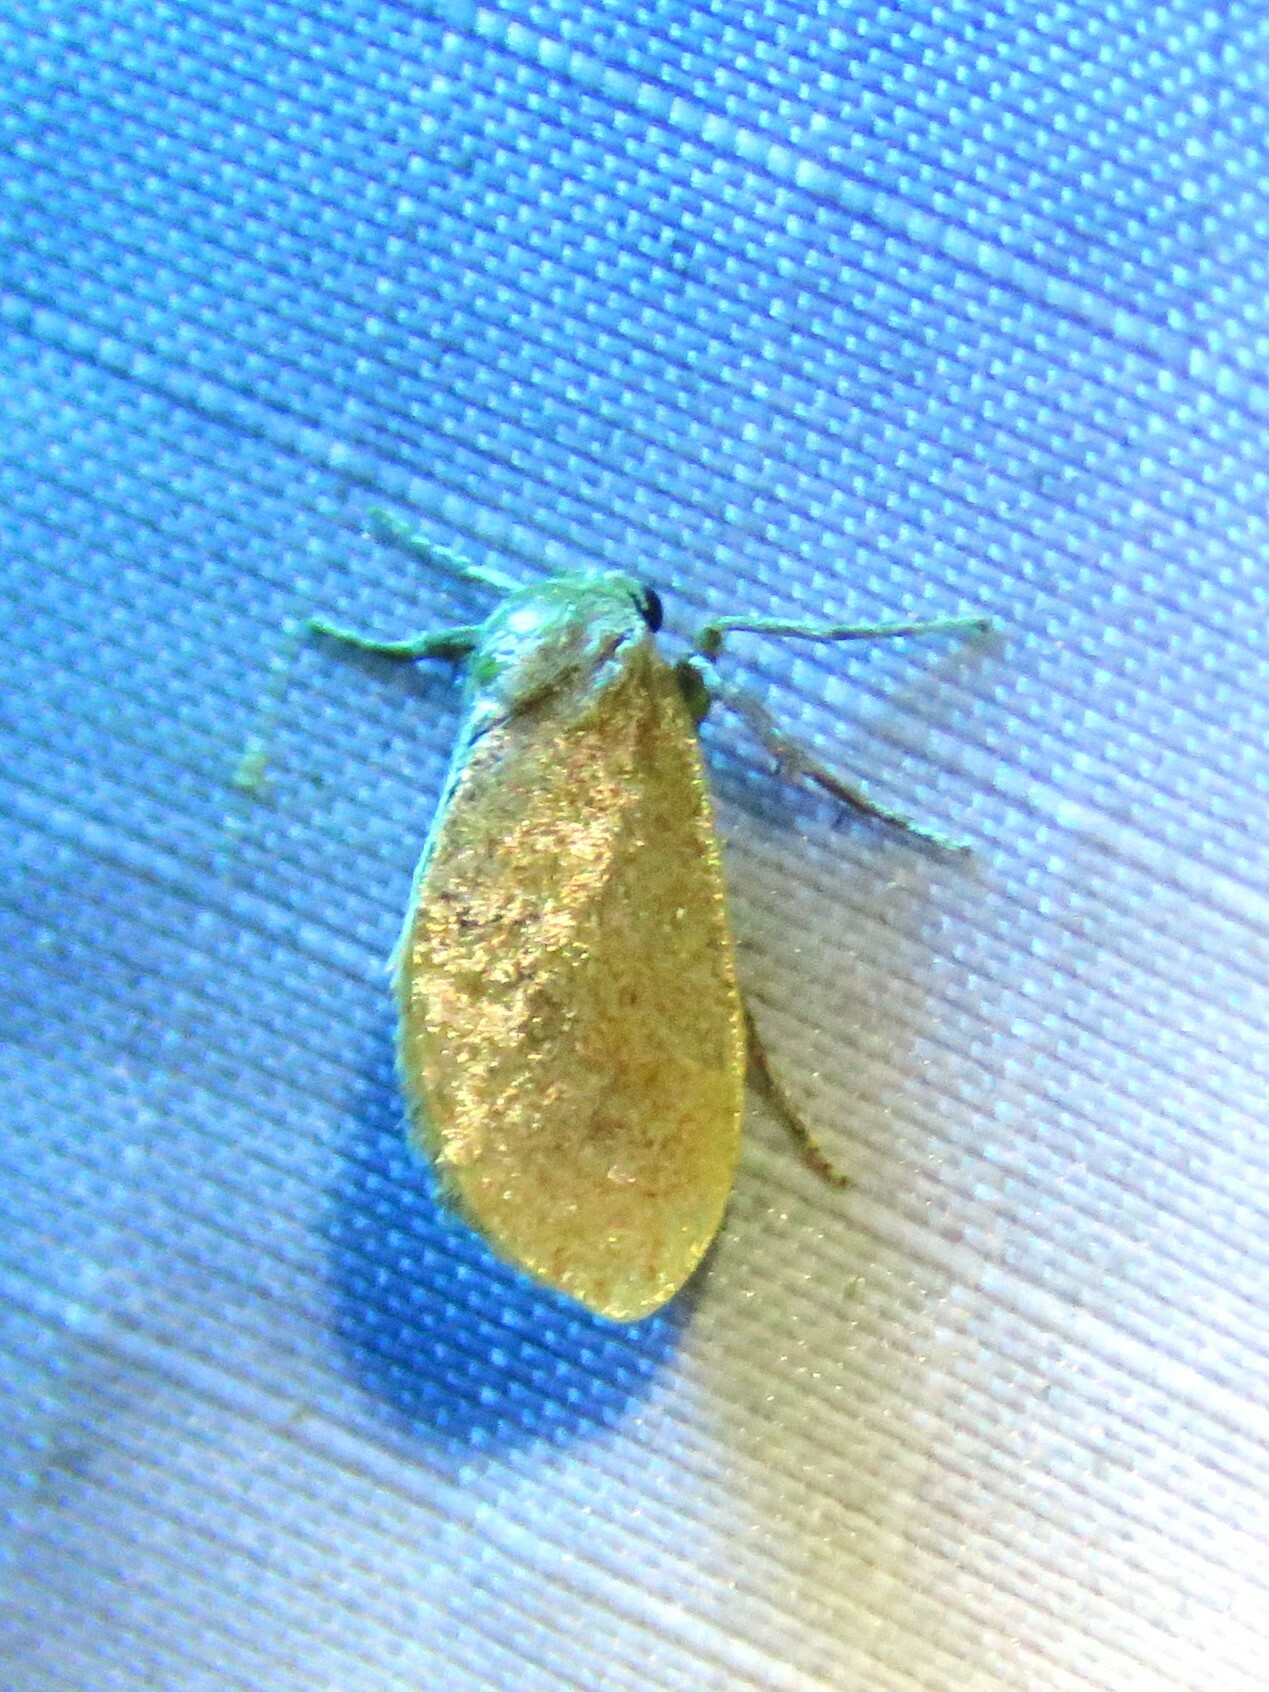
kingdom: Animalia
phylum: Arthropoda
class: Insecta
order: Lepidoptera
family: Limacodidae
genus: Adoneta
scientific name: Adoneta gemina
